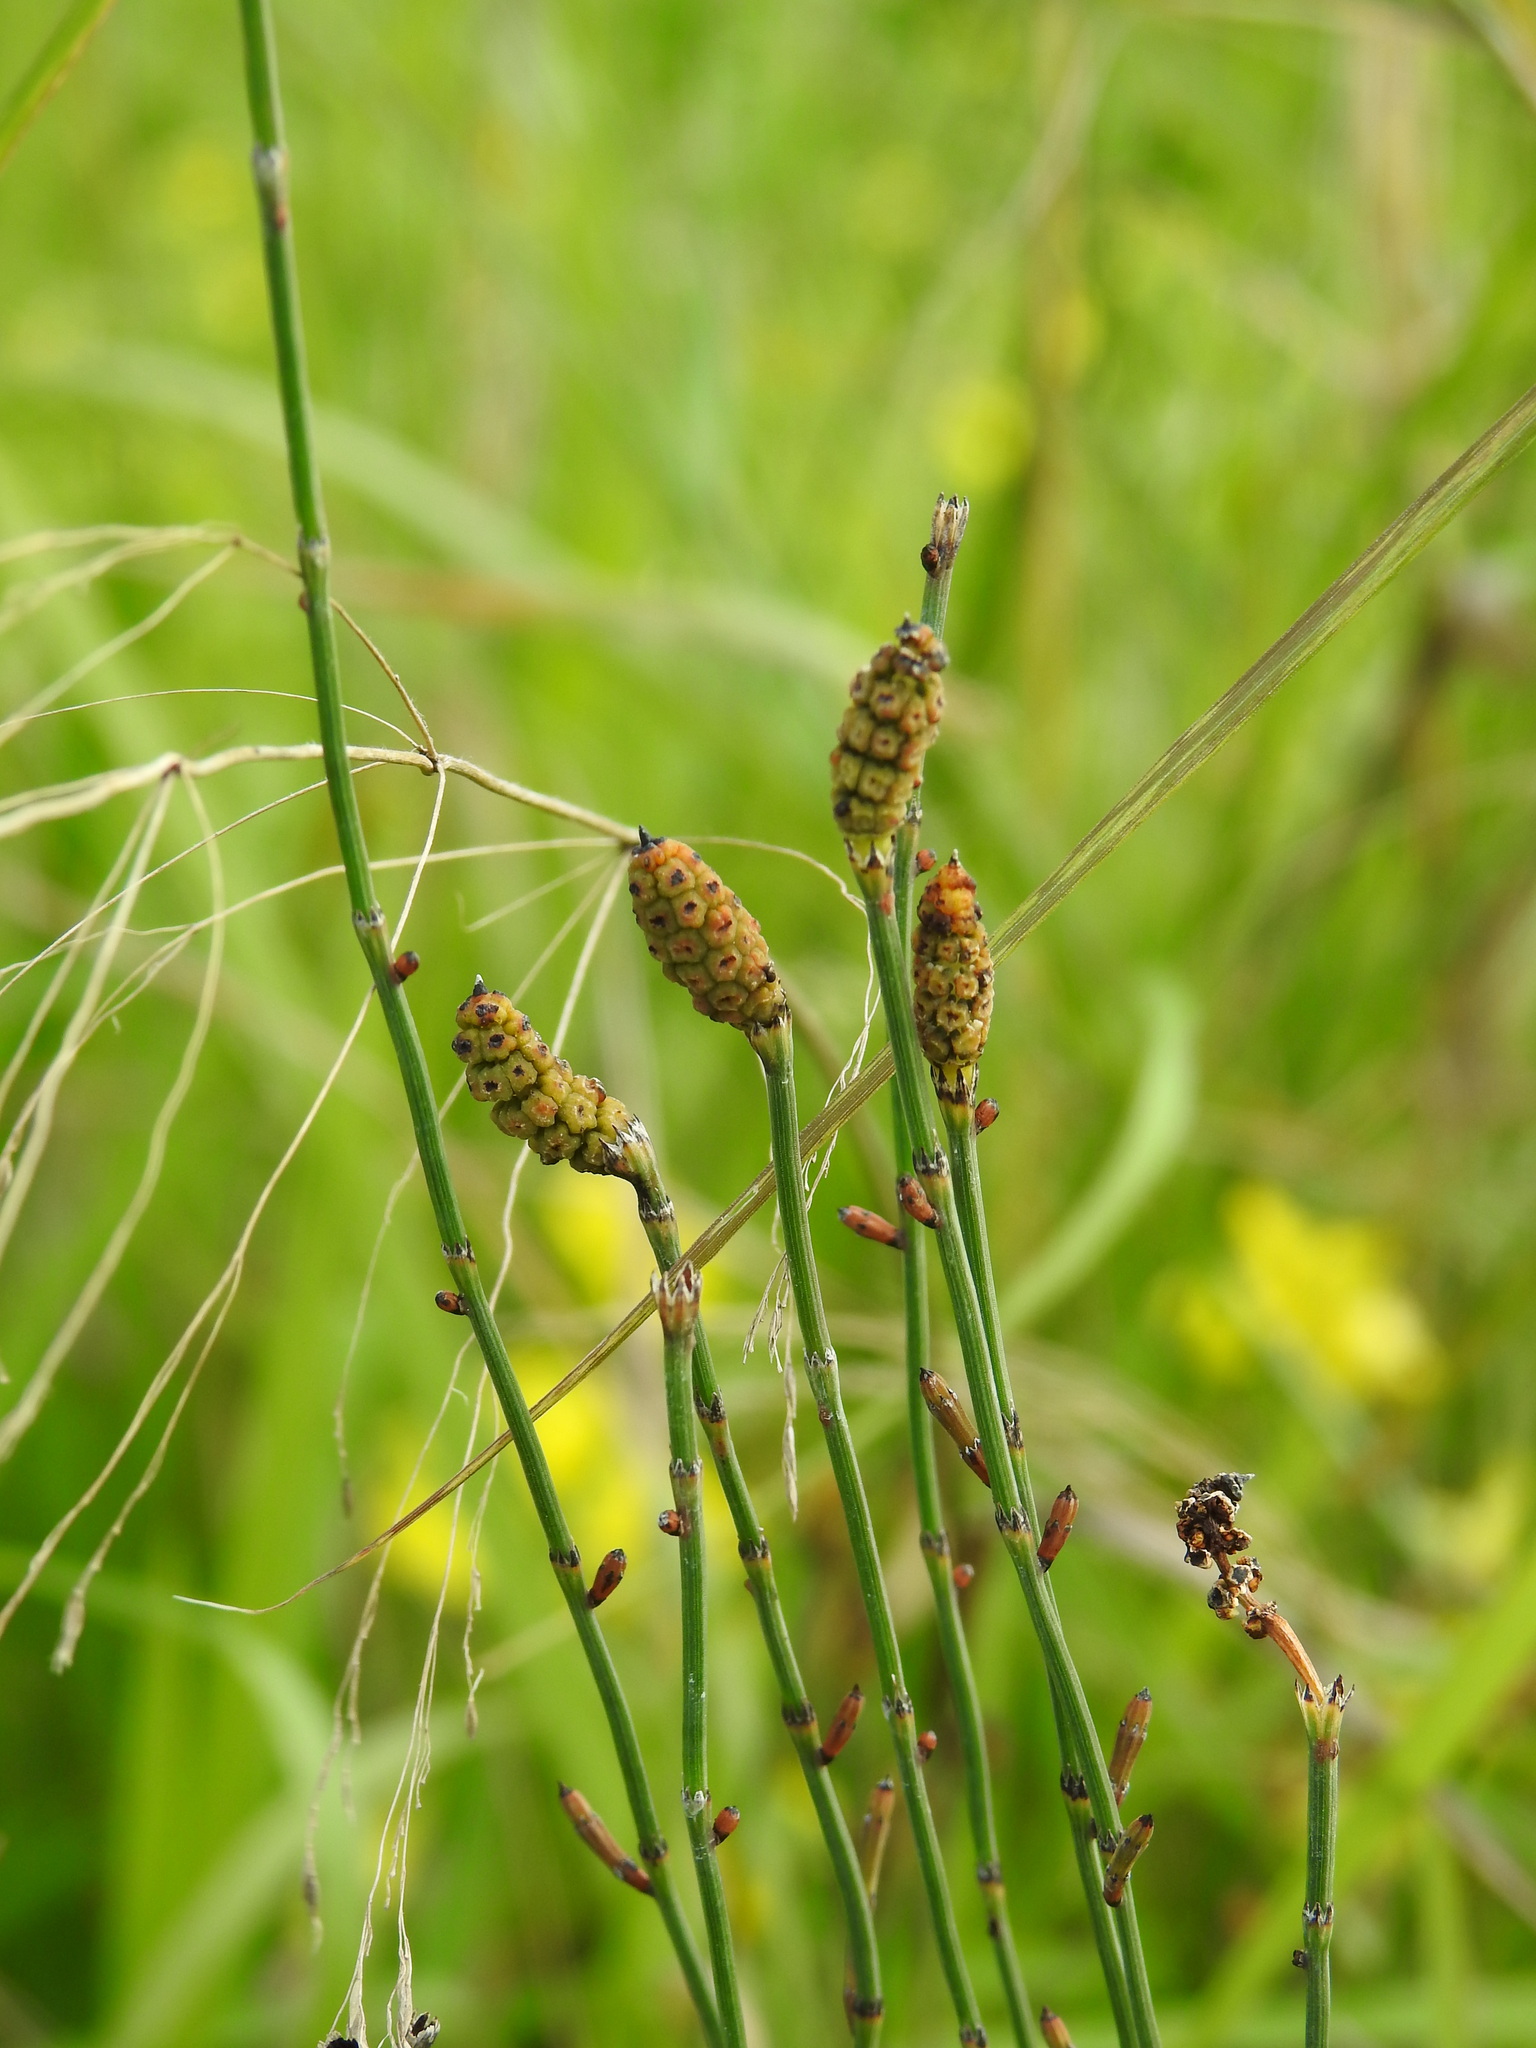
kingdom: Plantae
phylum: Tracheophyta
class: Polypodiopsida
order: Equisetales
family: Equisetaceae
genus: Equisetum
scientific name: Equisetum ramosissimum
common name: Branched horsetail
